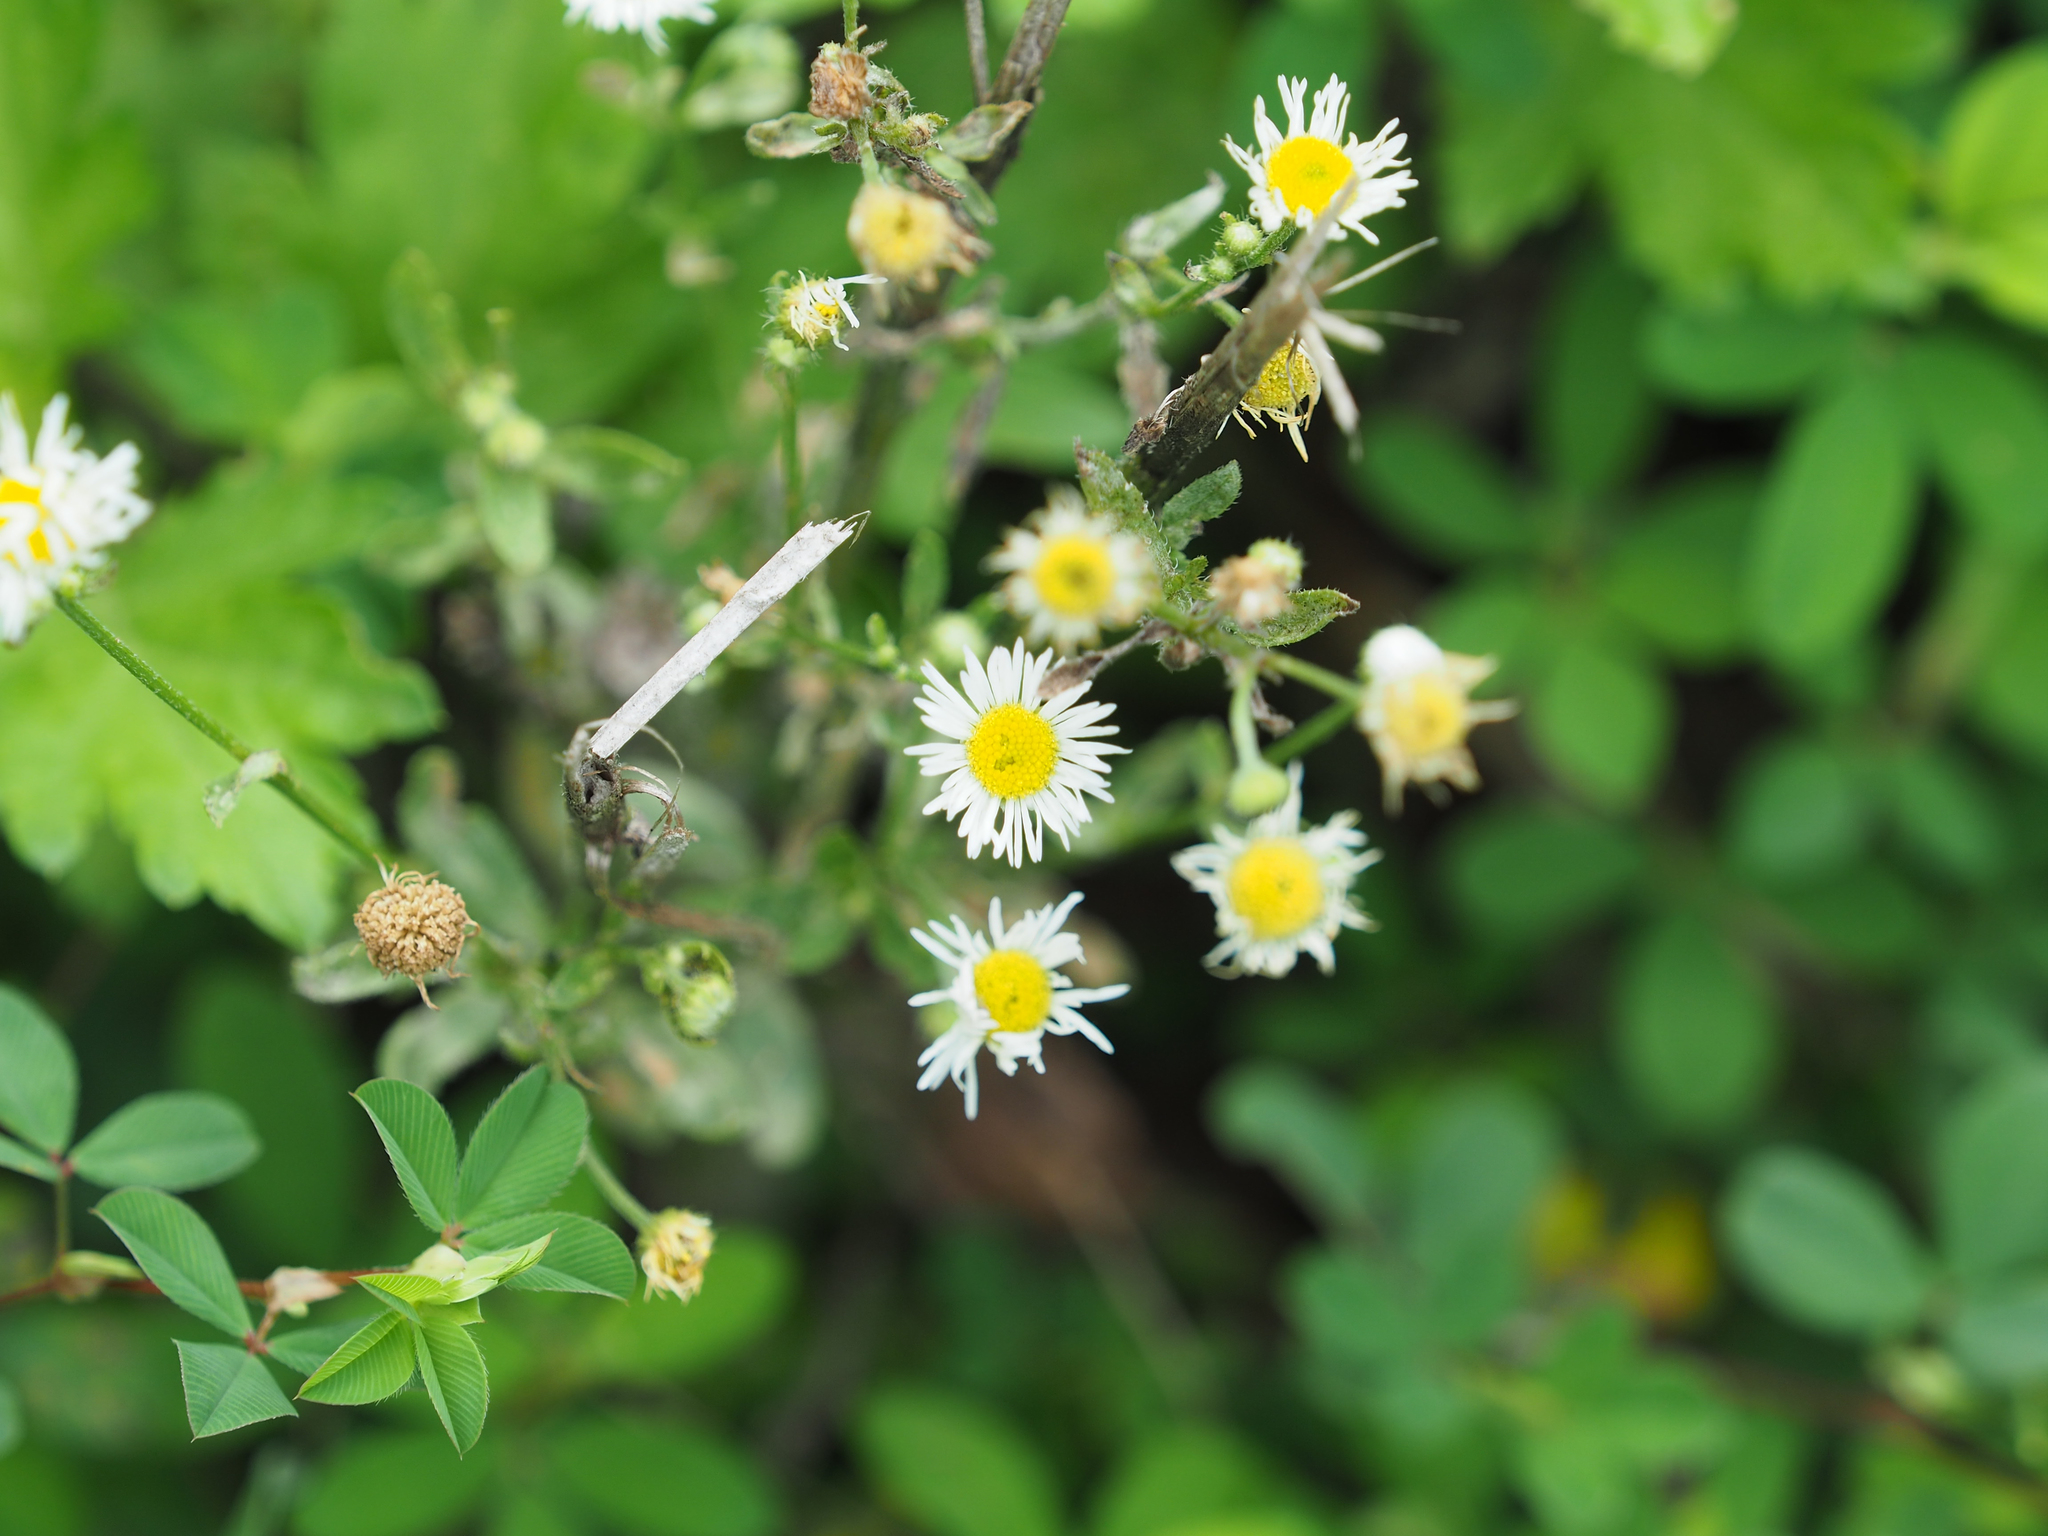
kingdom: Plantae
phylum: Tracheophyta
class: Magnoliopsida
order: Asterales
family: Asteraceae
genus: Erigeron
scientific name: Erigeron strigosus
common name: Common eastern fleabane
